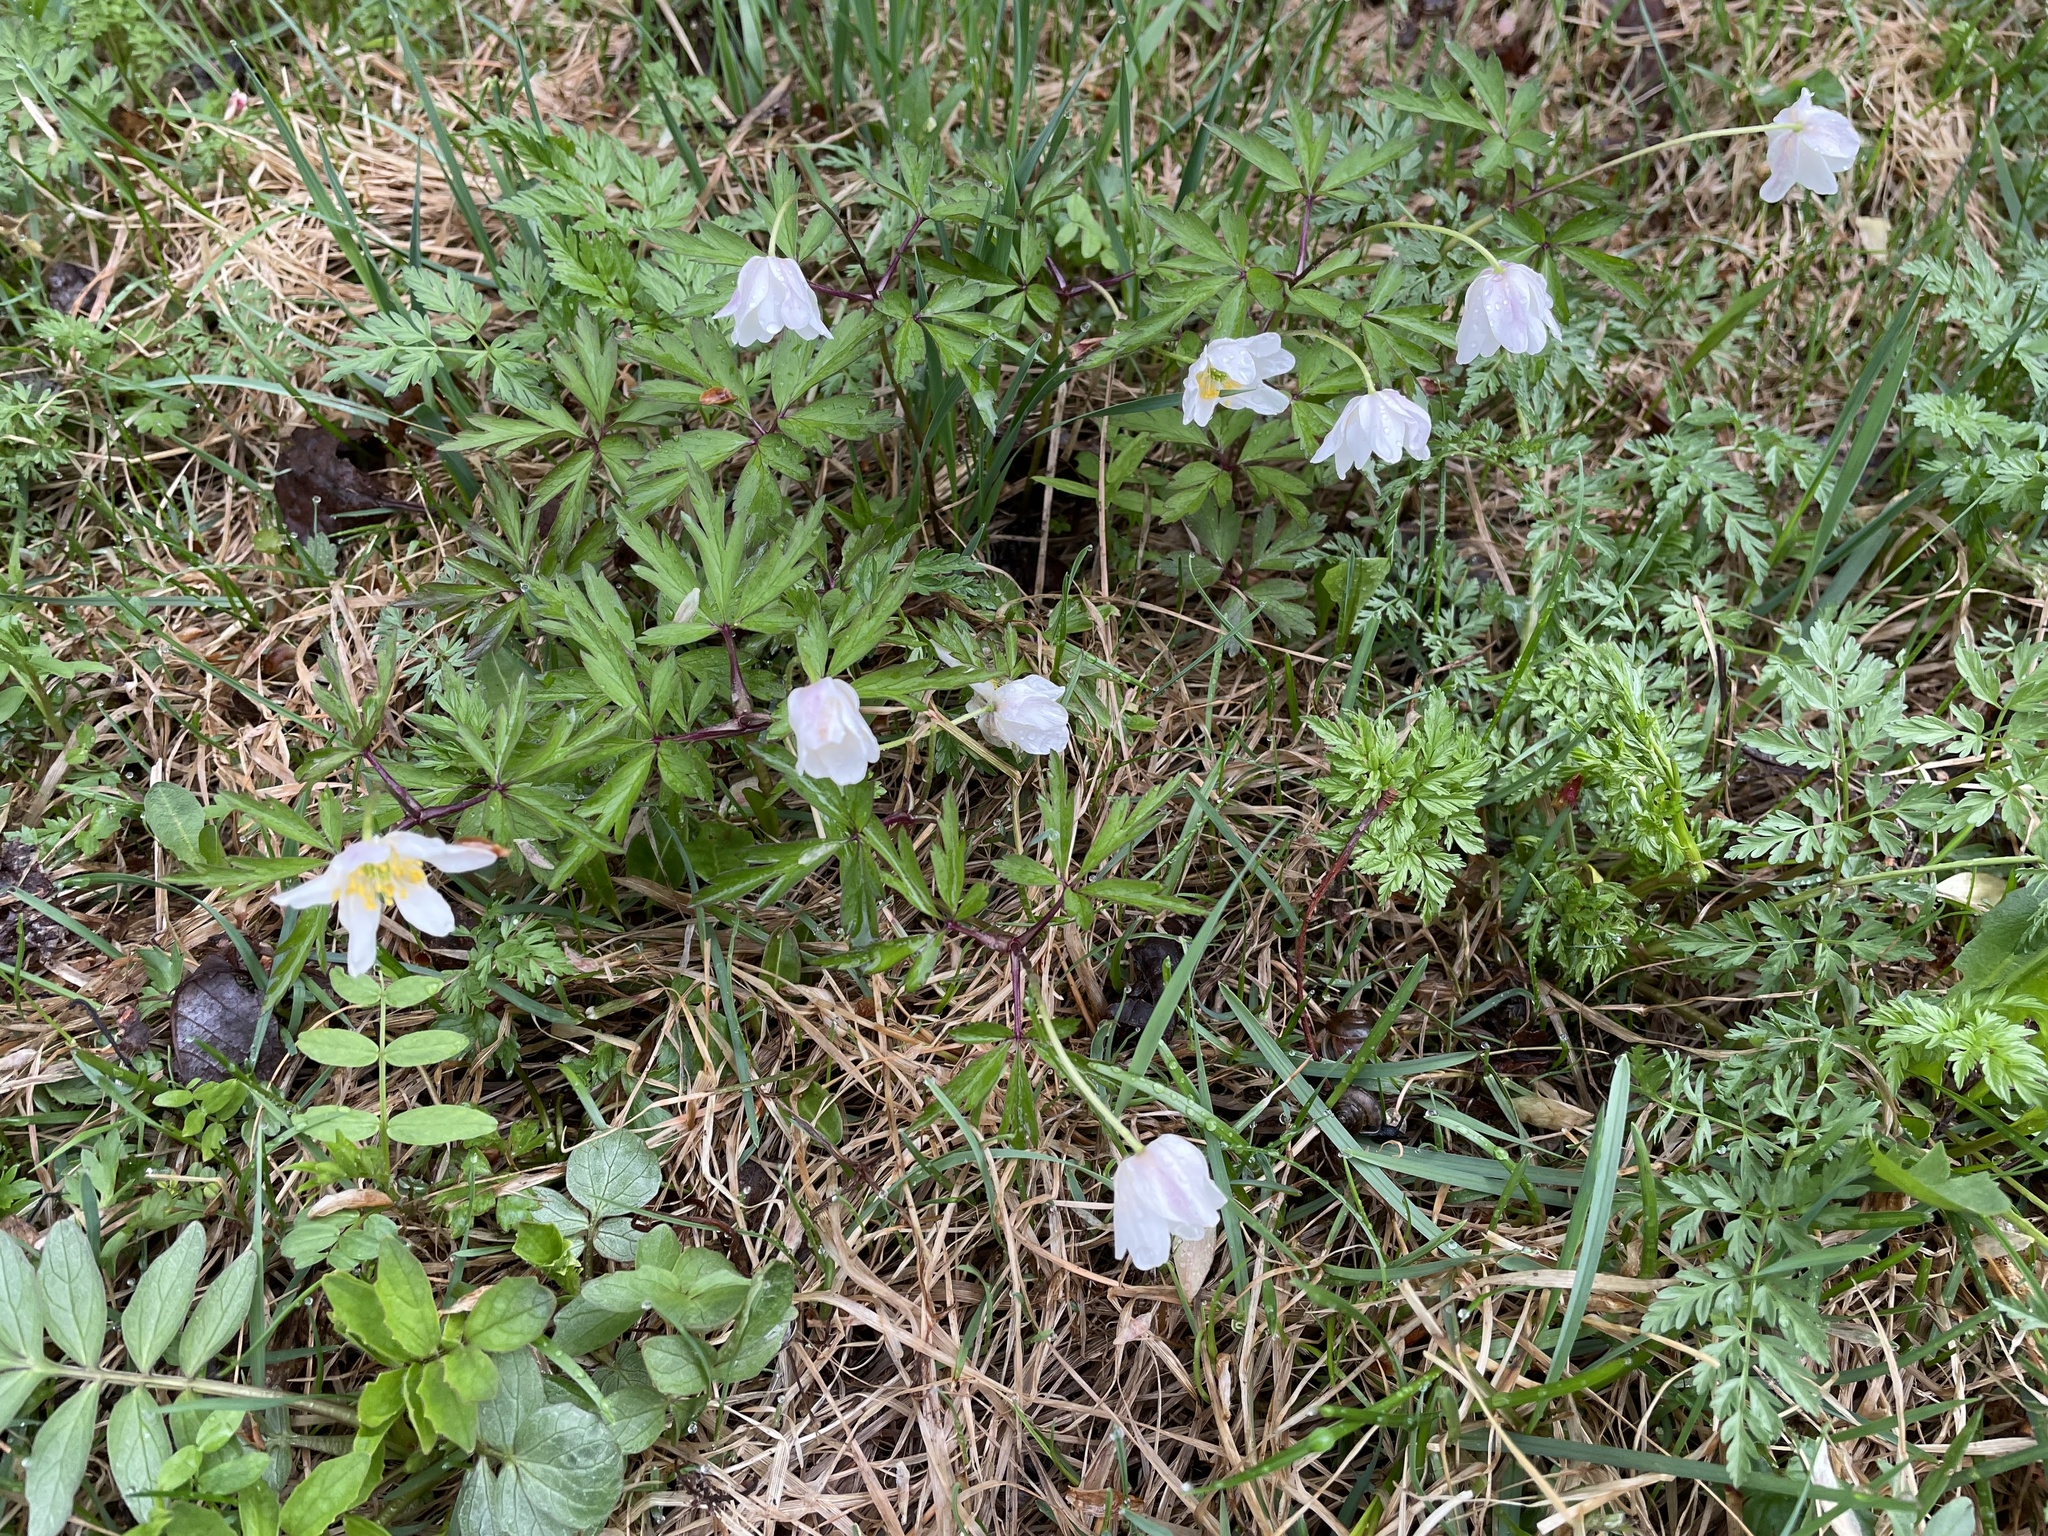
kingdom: Plantae
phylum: Tracheophyta
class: Magnoliopsida
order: Ranunculales
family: Ranunculaceae
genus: Anemone
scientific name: Anemone nemorosa
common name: Wood anemone
